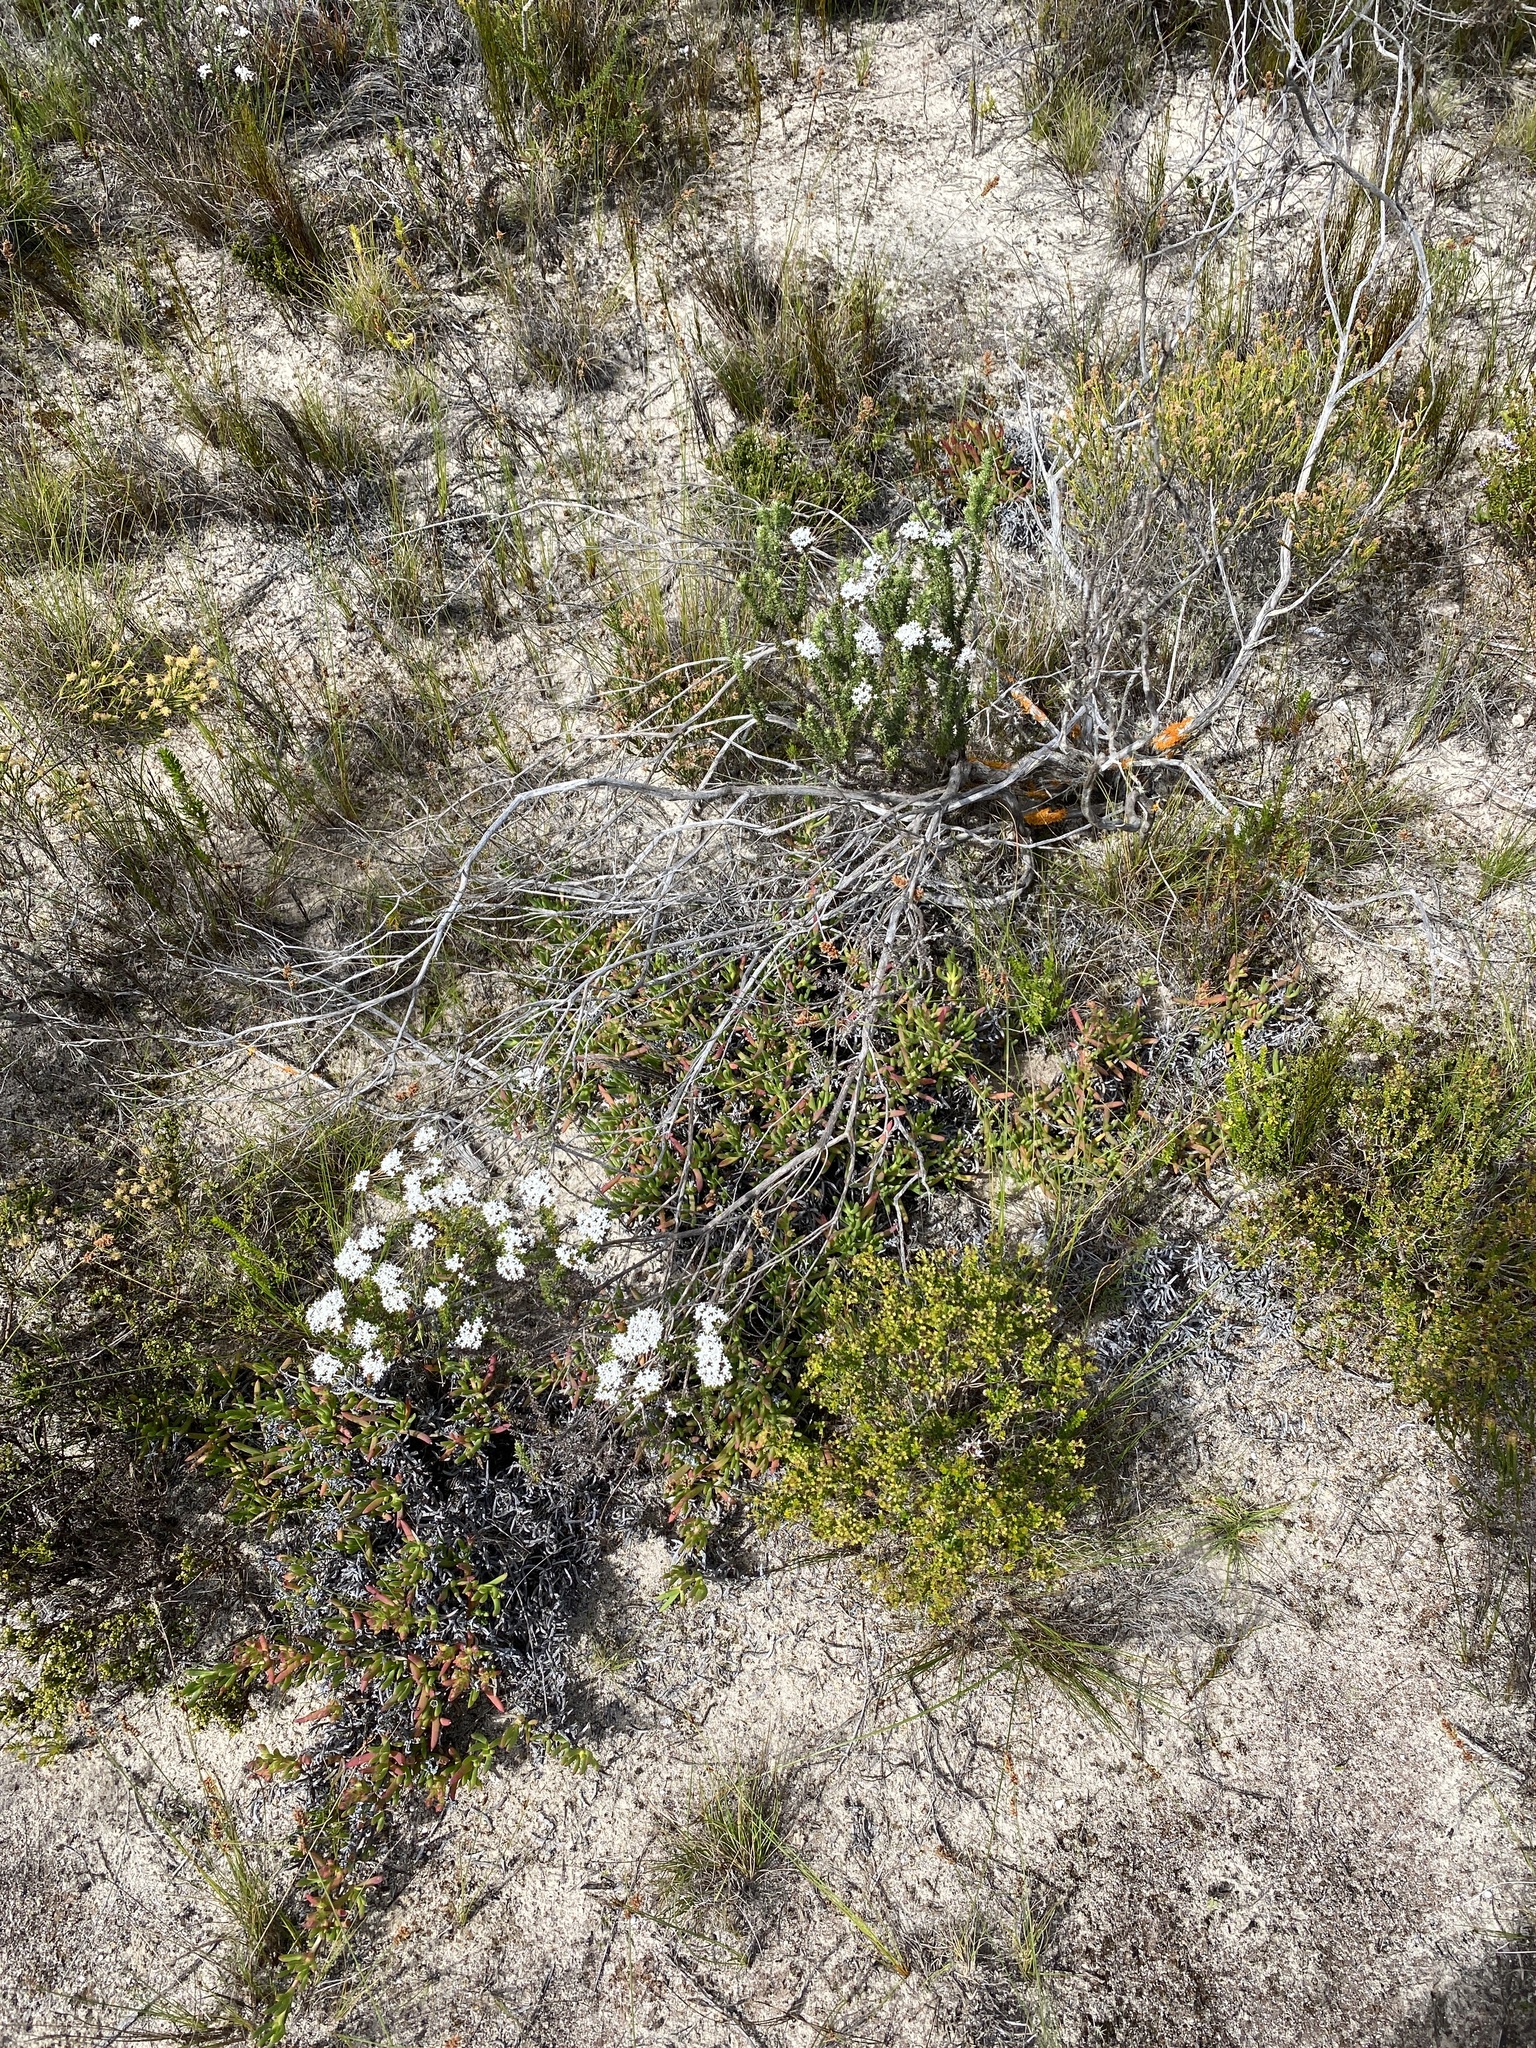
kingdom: Plantae
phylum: Tracheophyta
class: Magnoliopsida
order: Asterales
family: Asteraceae
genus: Metalasia
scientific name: Metalasia muricata
